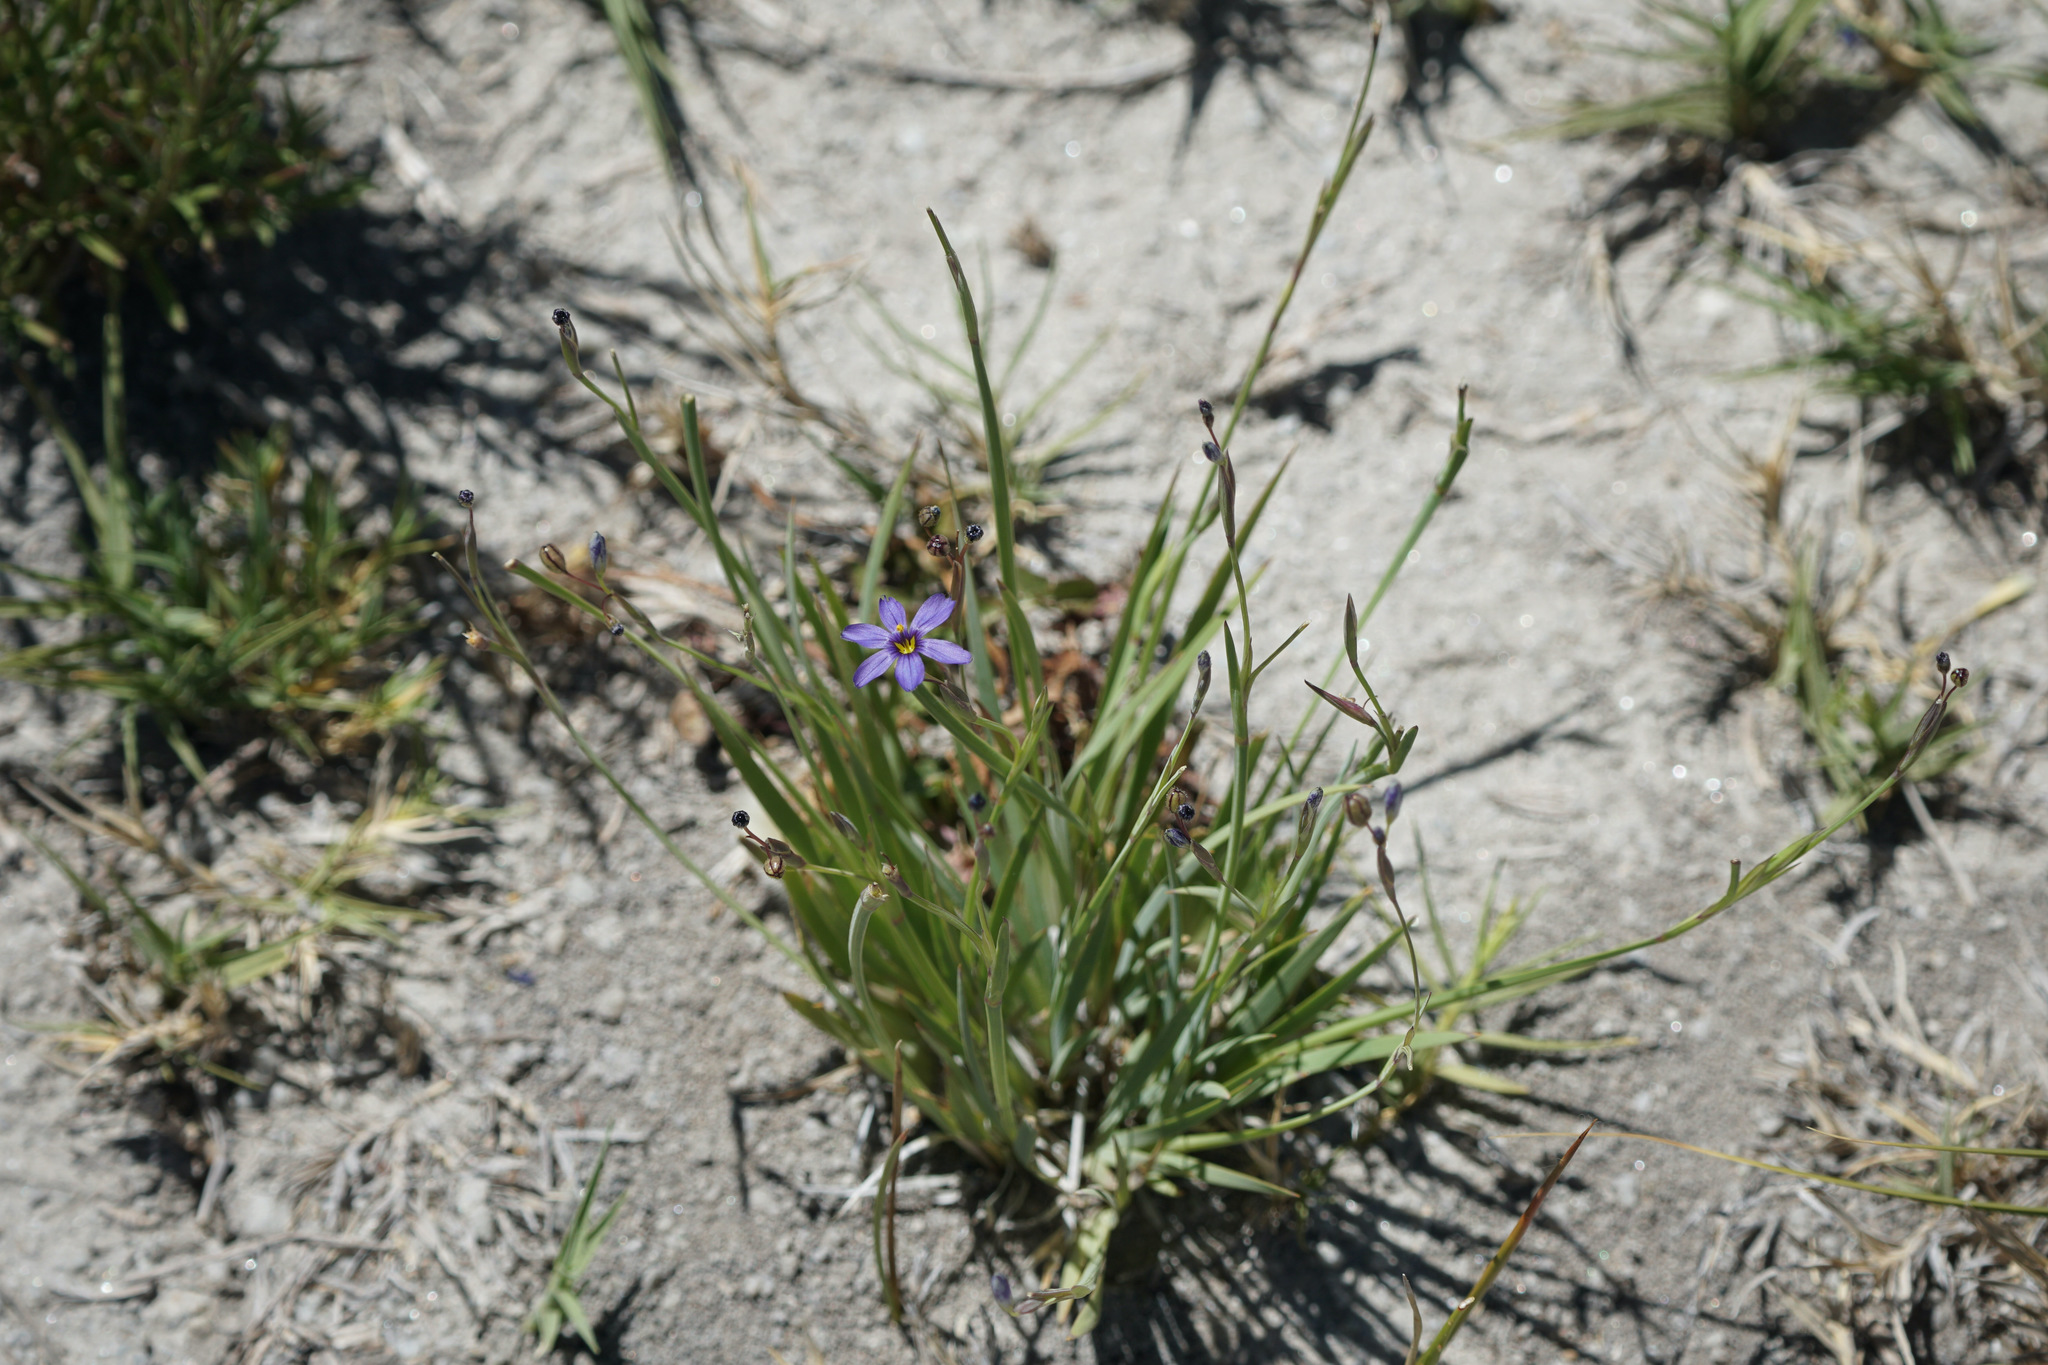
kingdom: Plantae
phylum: Tracheophyta
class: Liliopsida
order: Asparagales
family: Iridaceae
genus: Sisyrinchium
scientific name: Sisyrinchium bellum
